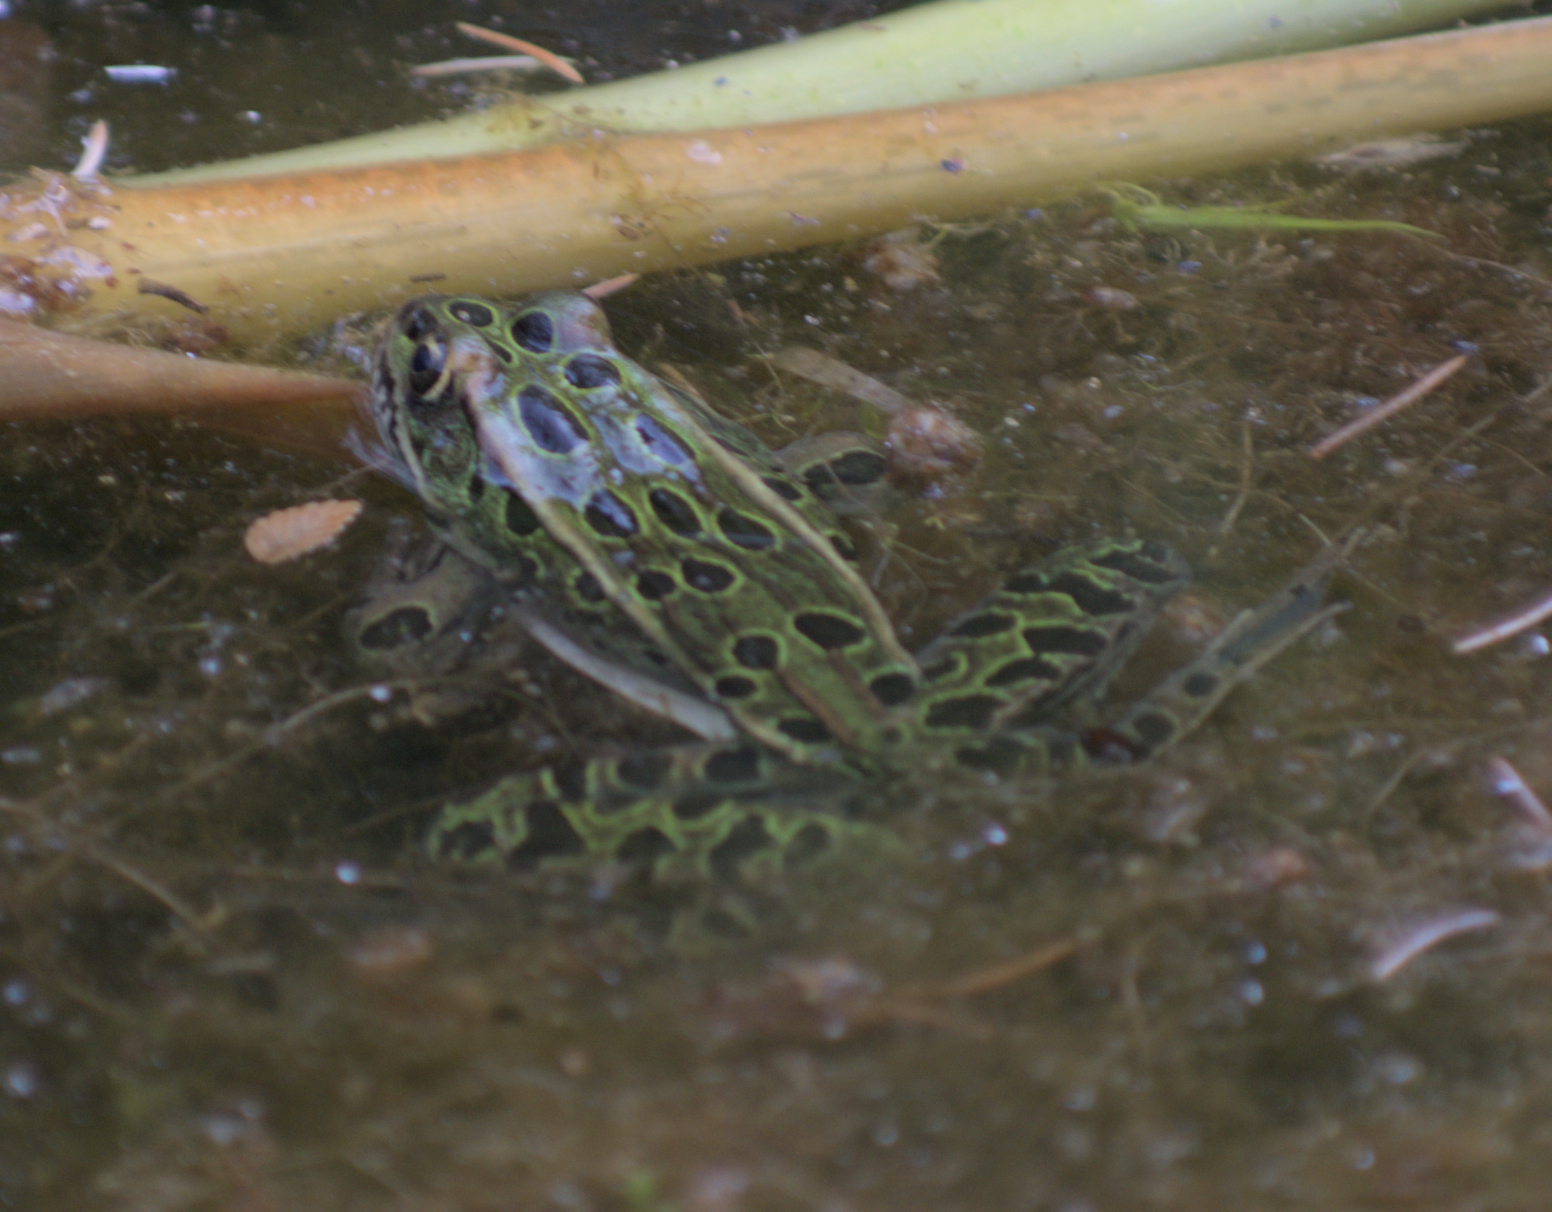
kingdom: Animalia
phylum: Chordata
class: Amphibia
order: Anura
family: Ranidae
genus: Lithobates
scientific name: Lithobates pipiens
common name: Northern leopard frog
